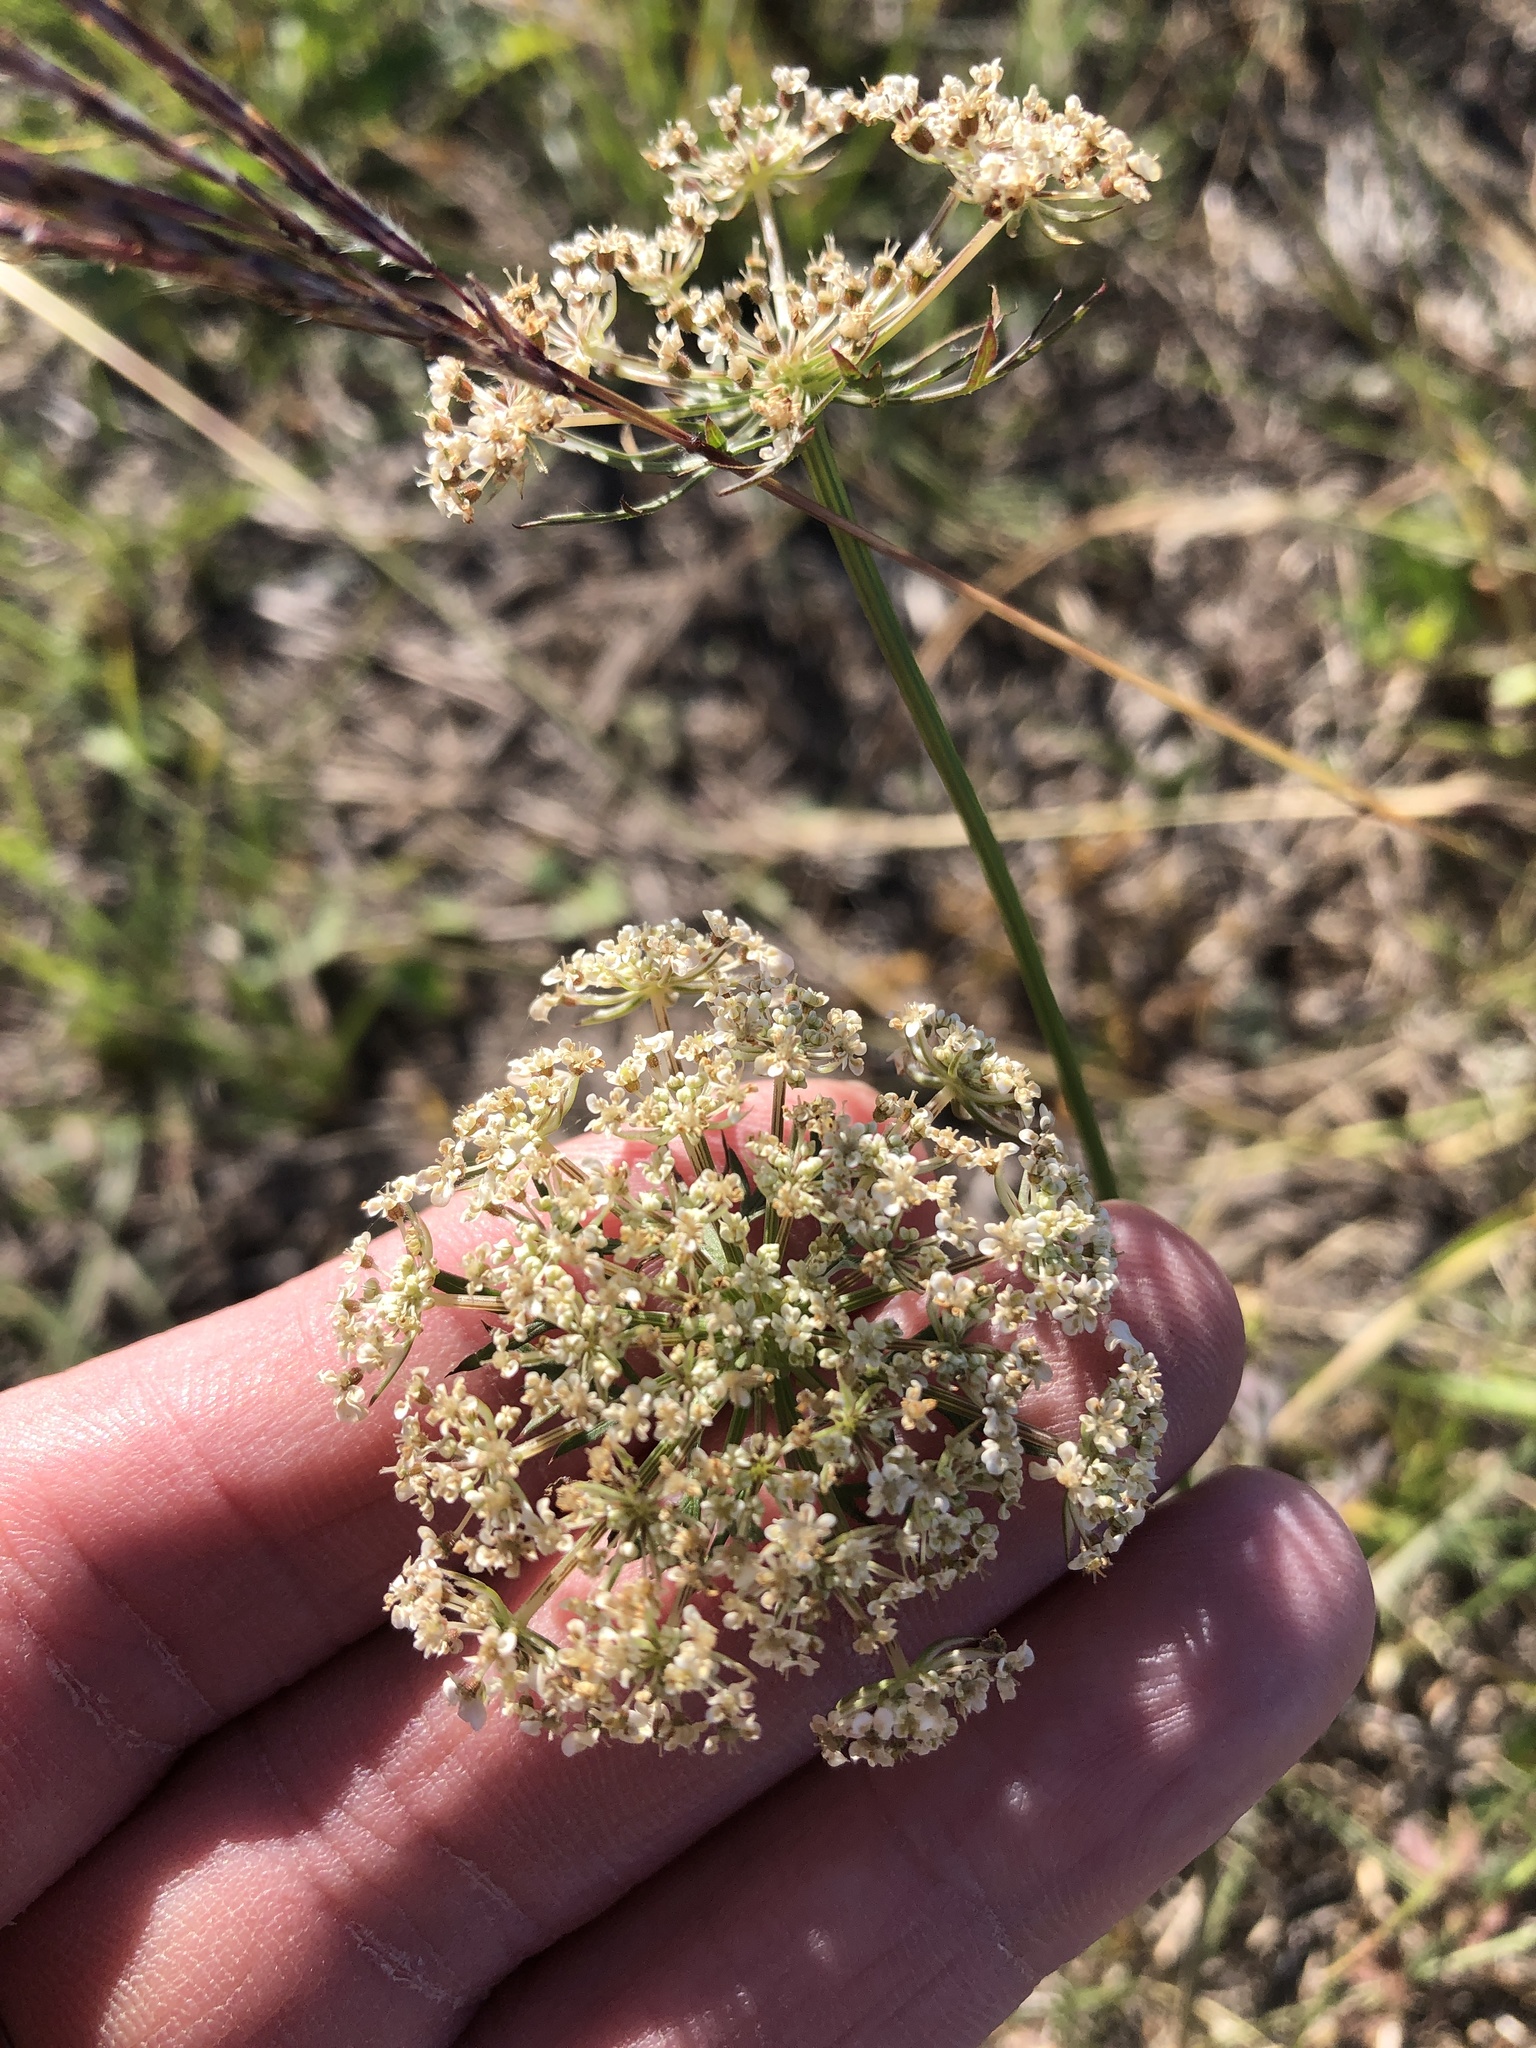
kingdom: Plantae
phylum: Tracheophyta
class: Magnoliopsida
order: Apiales
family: Apiaceae
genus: Daucus
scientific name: Daucus carota
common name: Wild carrot
